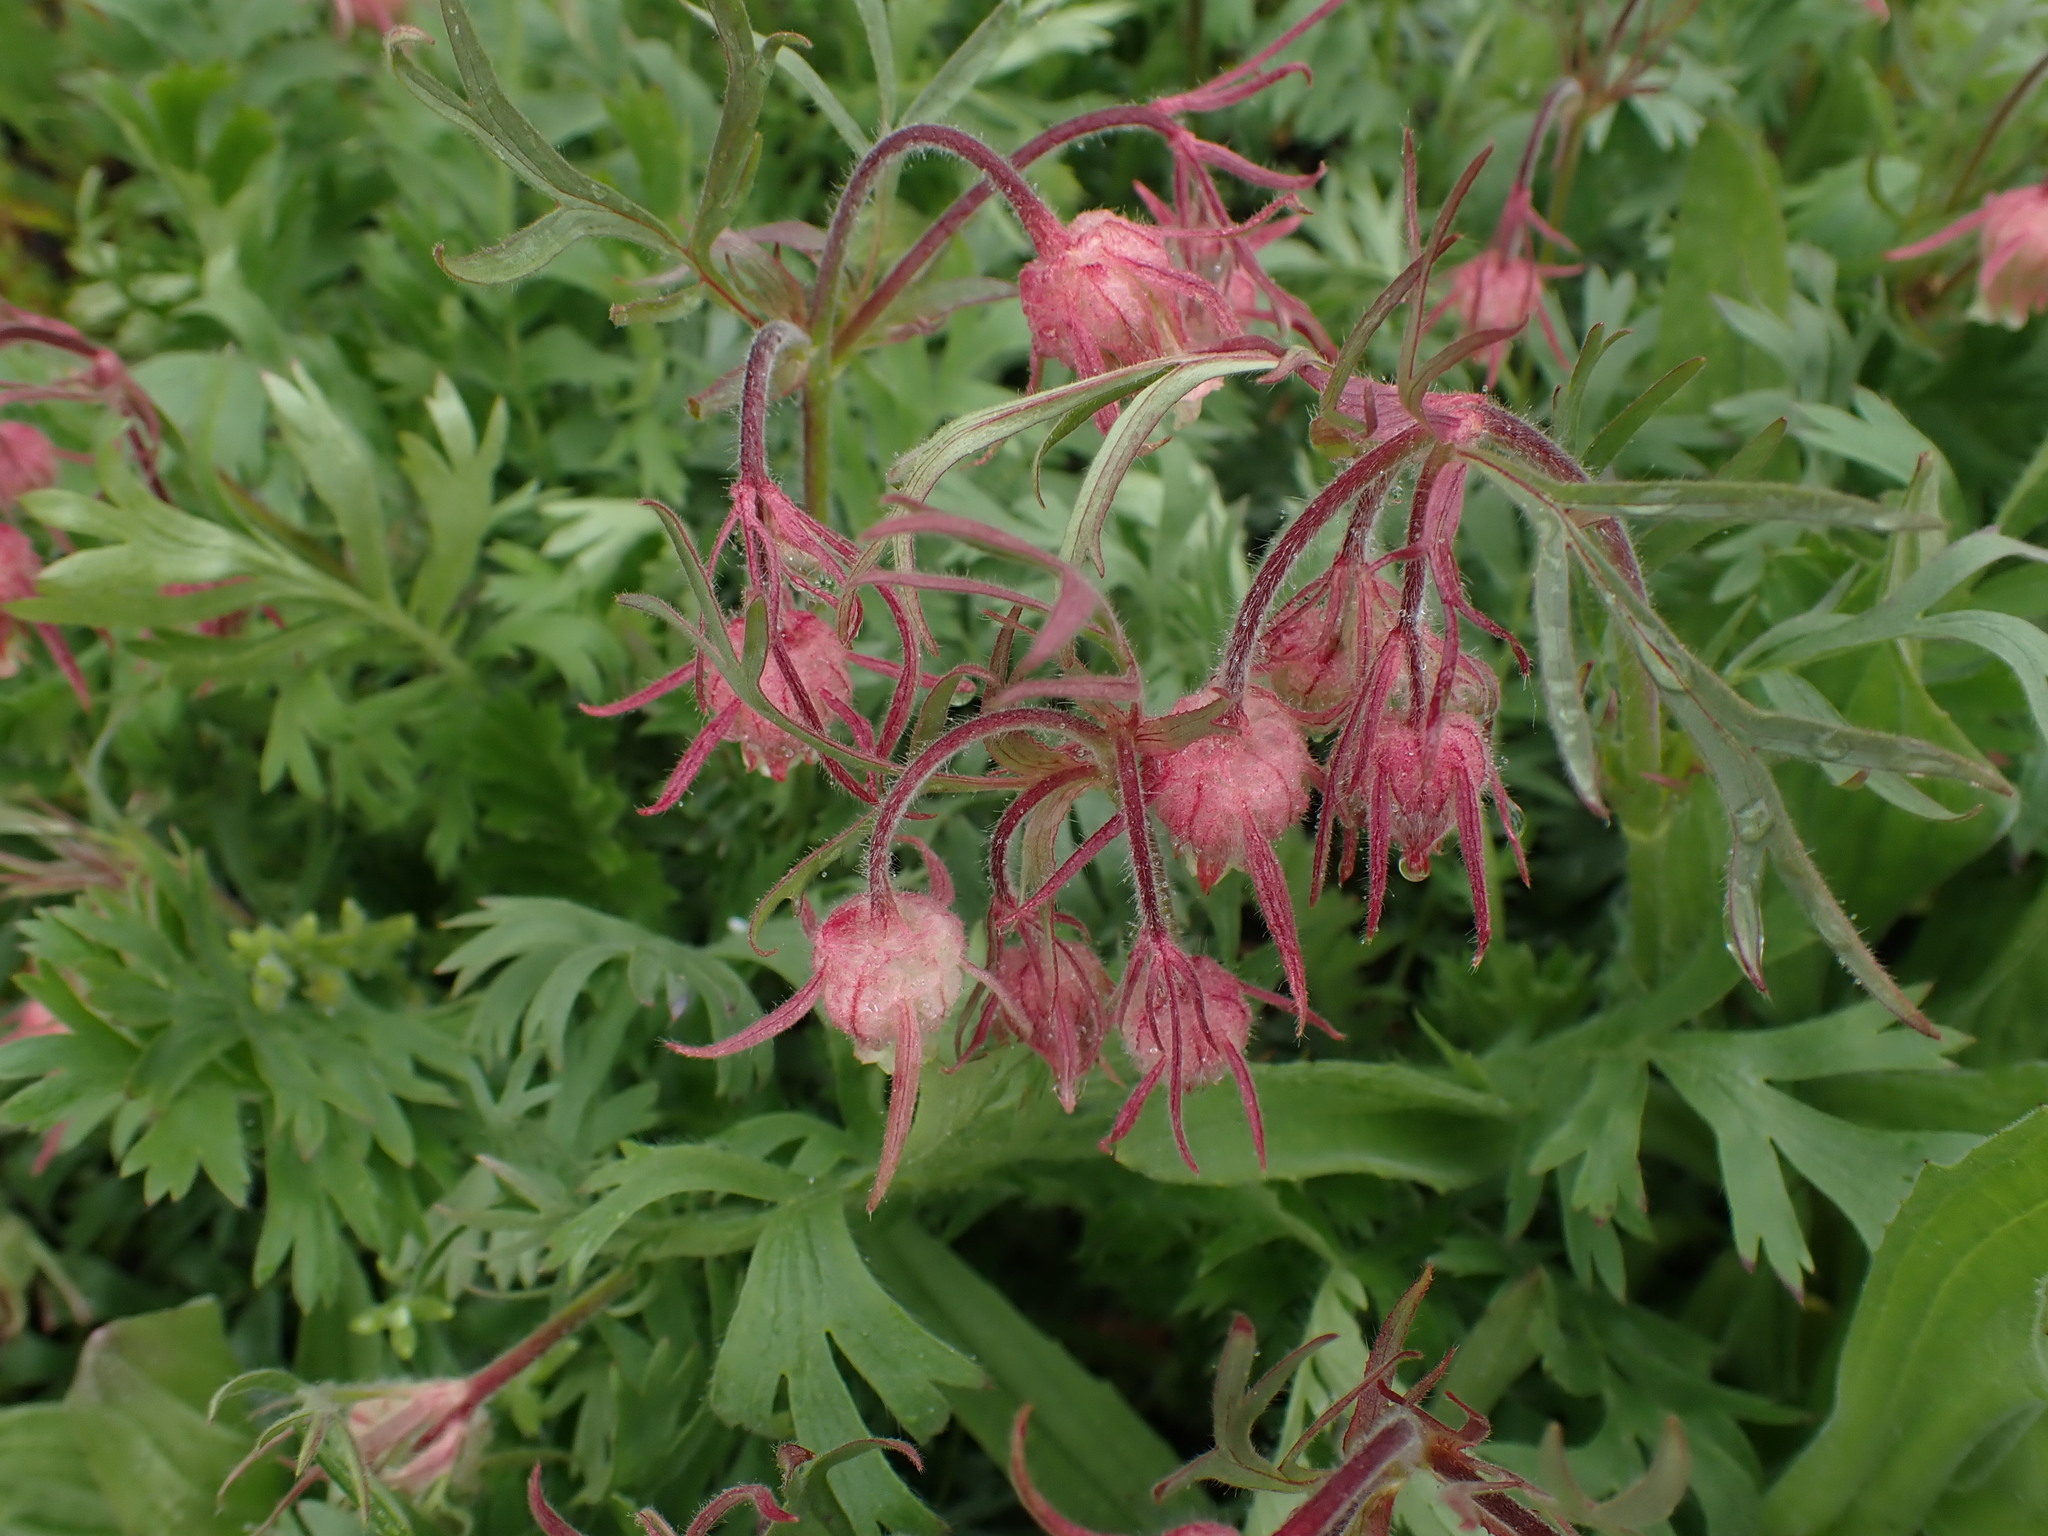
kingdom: Plantae
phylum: Tracheophyta
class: Magnoliopsida
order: Rosales
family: Rosaceae
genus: Geum
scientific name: Geum triflorum
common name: Old man's whiskers
